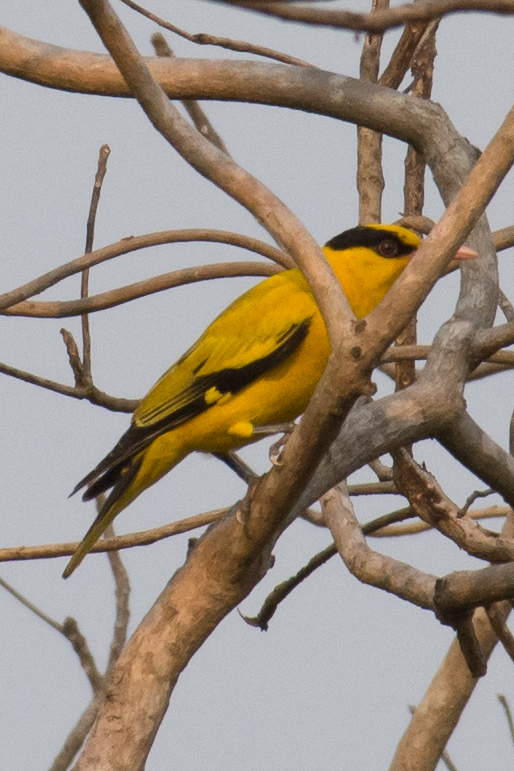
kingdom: Animalia
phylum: Chordata
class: Aves
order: Passeriformes
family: Oriolidae
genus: Oriolus
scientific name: Oriolus chinensis
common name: Black-naped oriole
